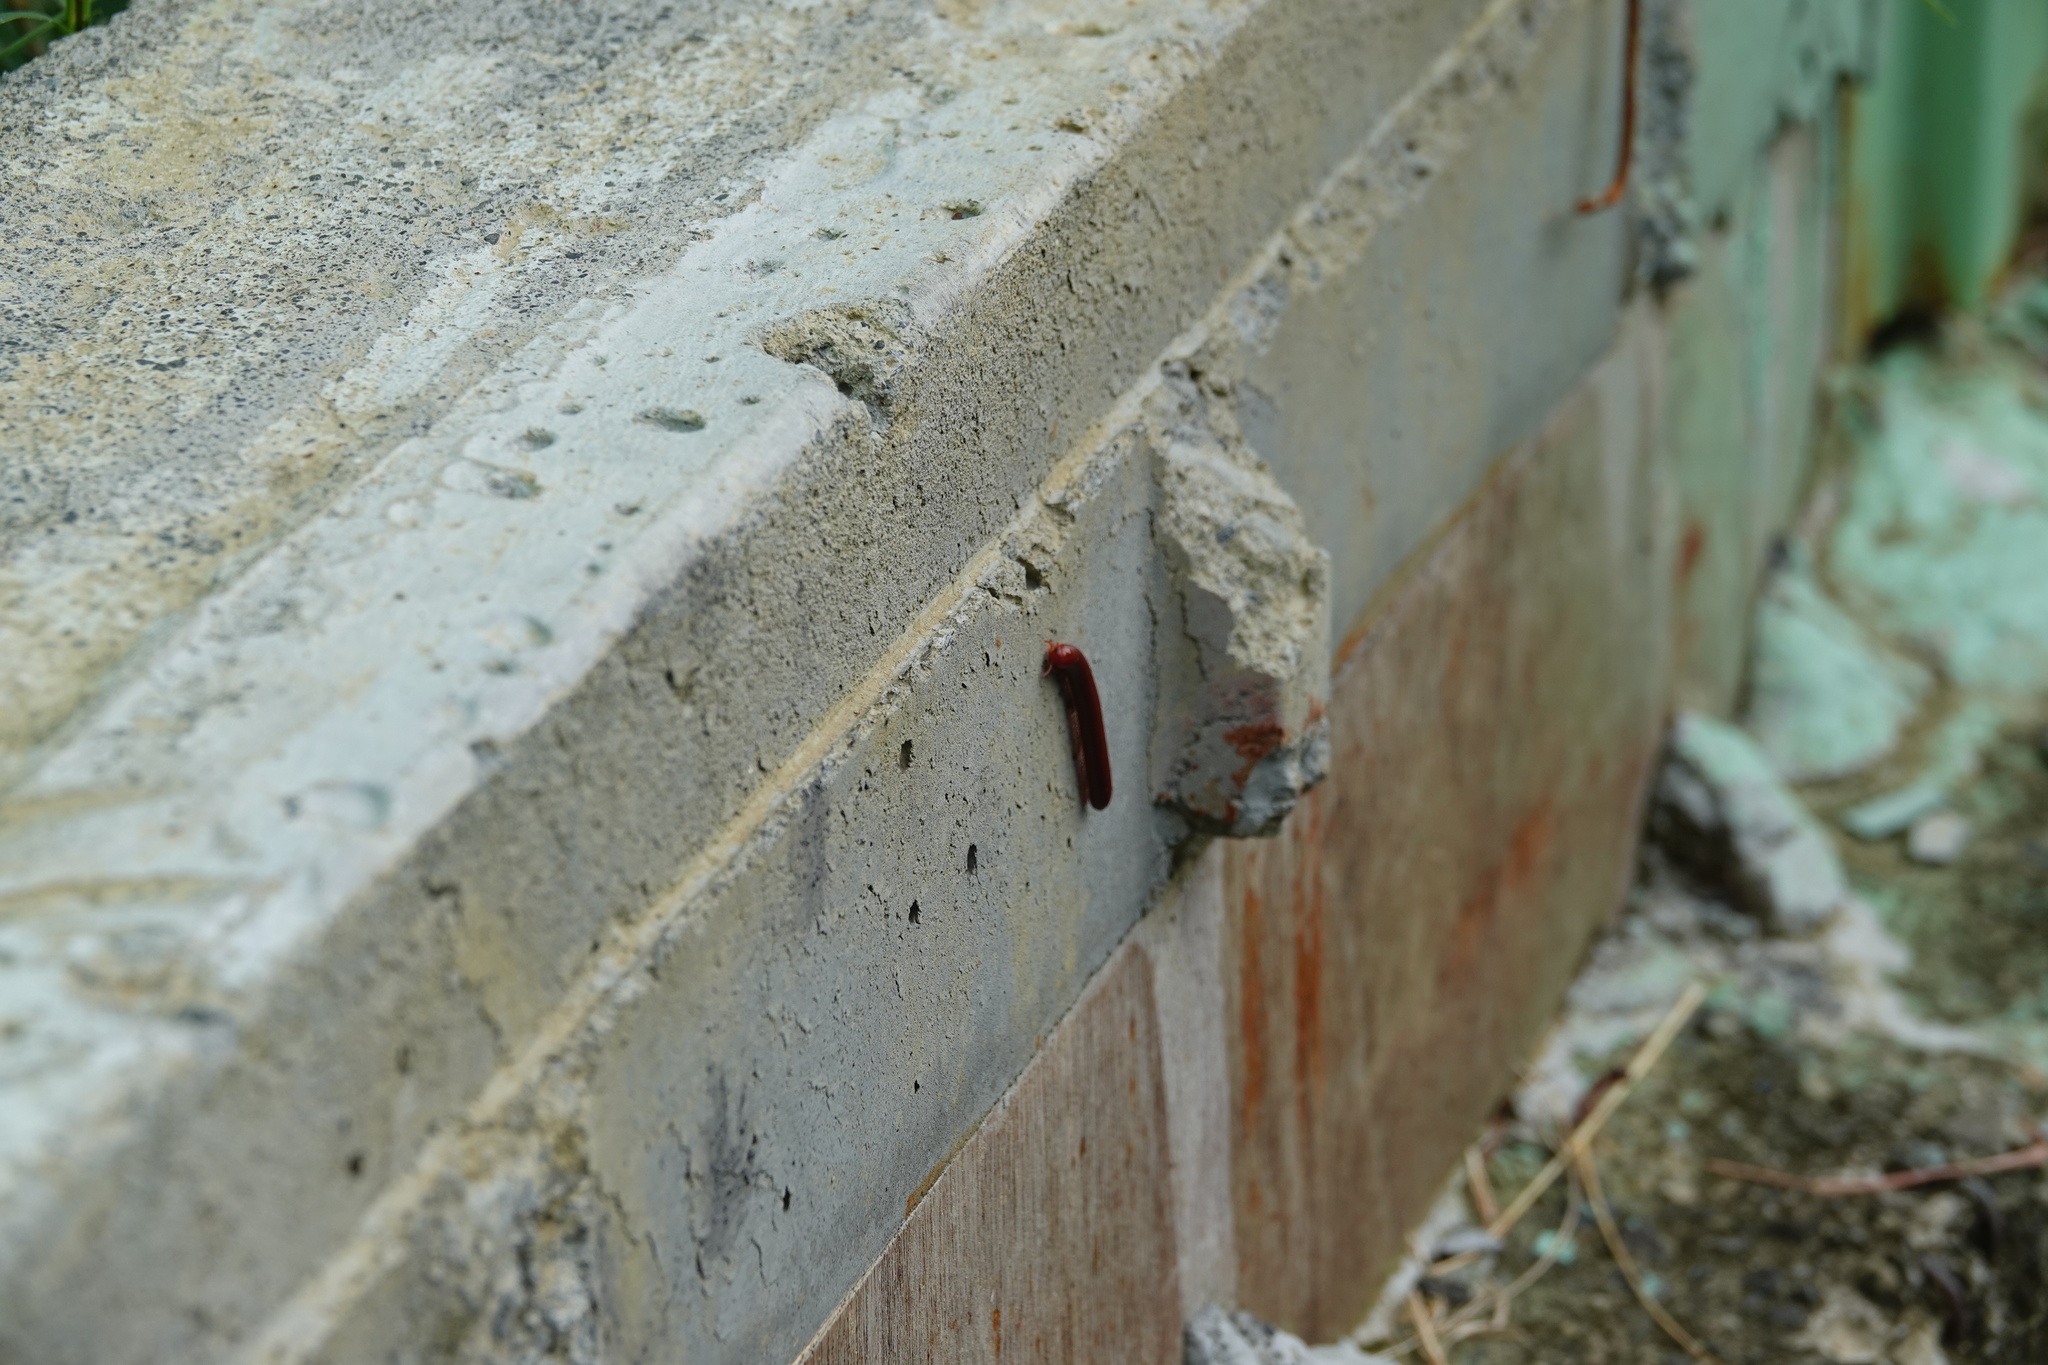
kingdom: Animalia
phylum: Arthropoda
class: Diplopoda
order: Spirobolida
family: Pachybolidae
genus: Trigoniulus
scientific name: Trigoniulus corallinus
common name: Millipede
